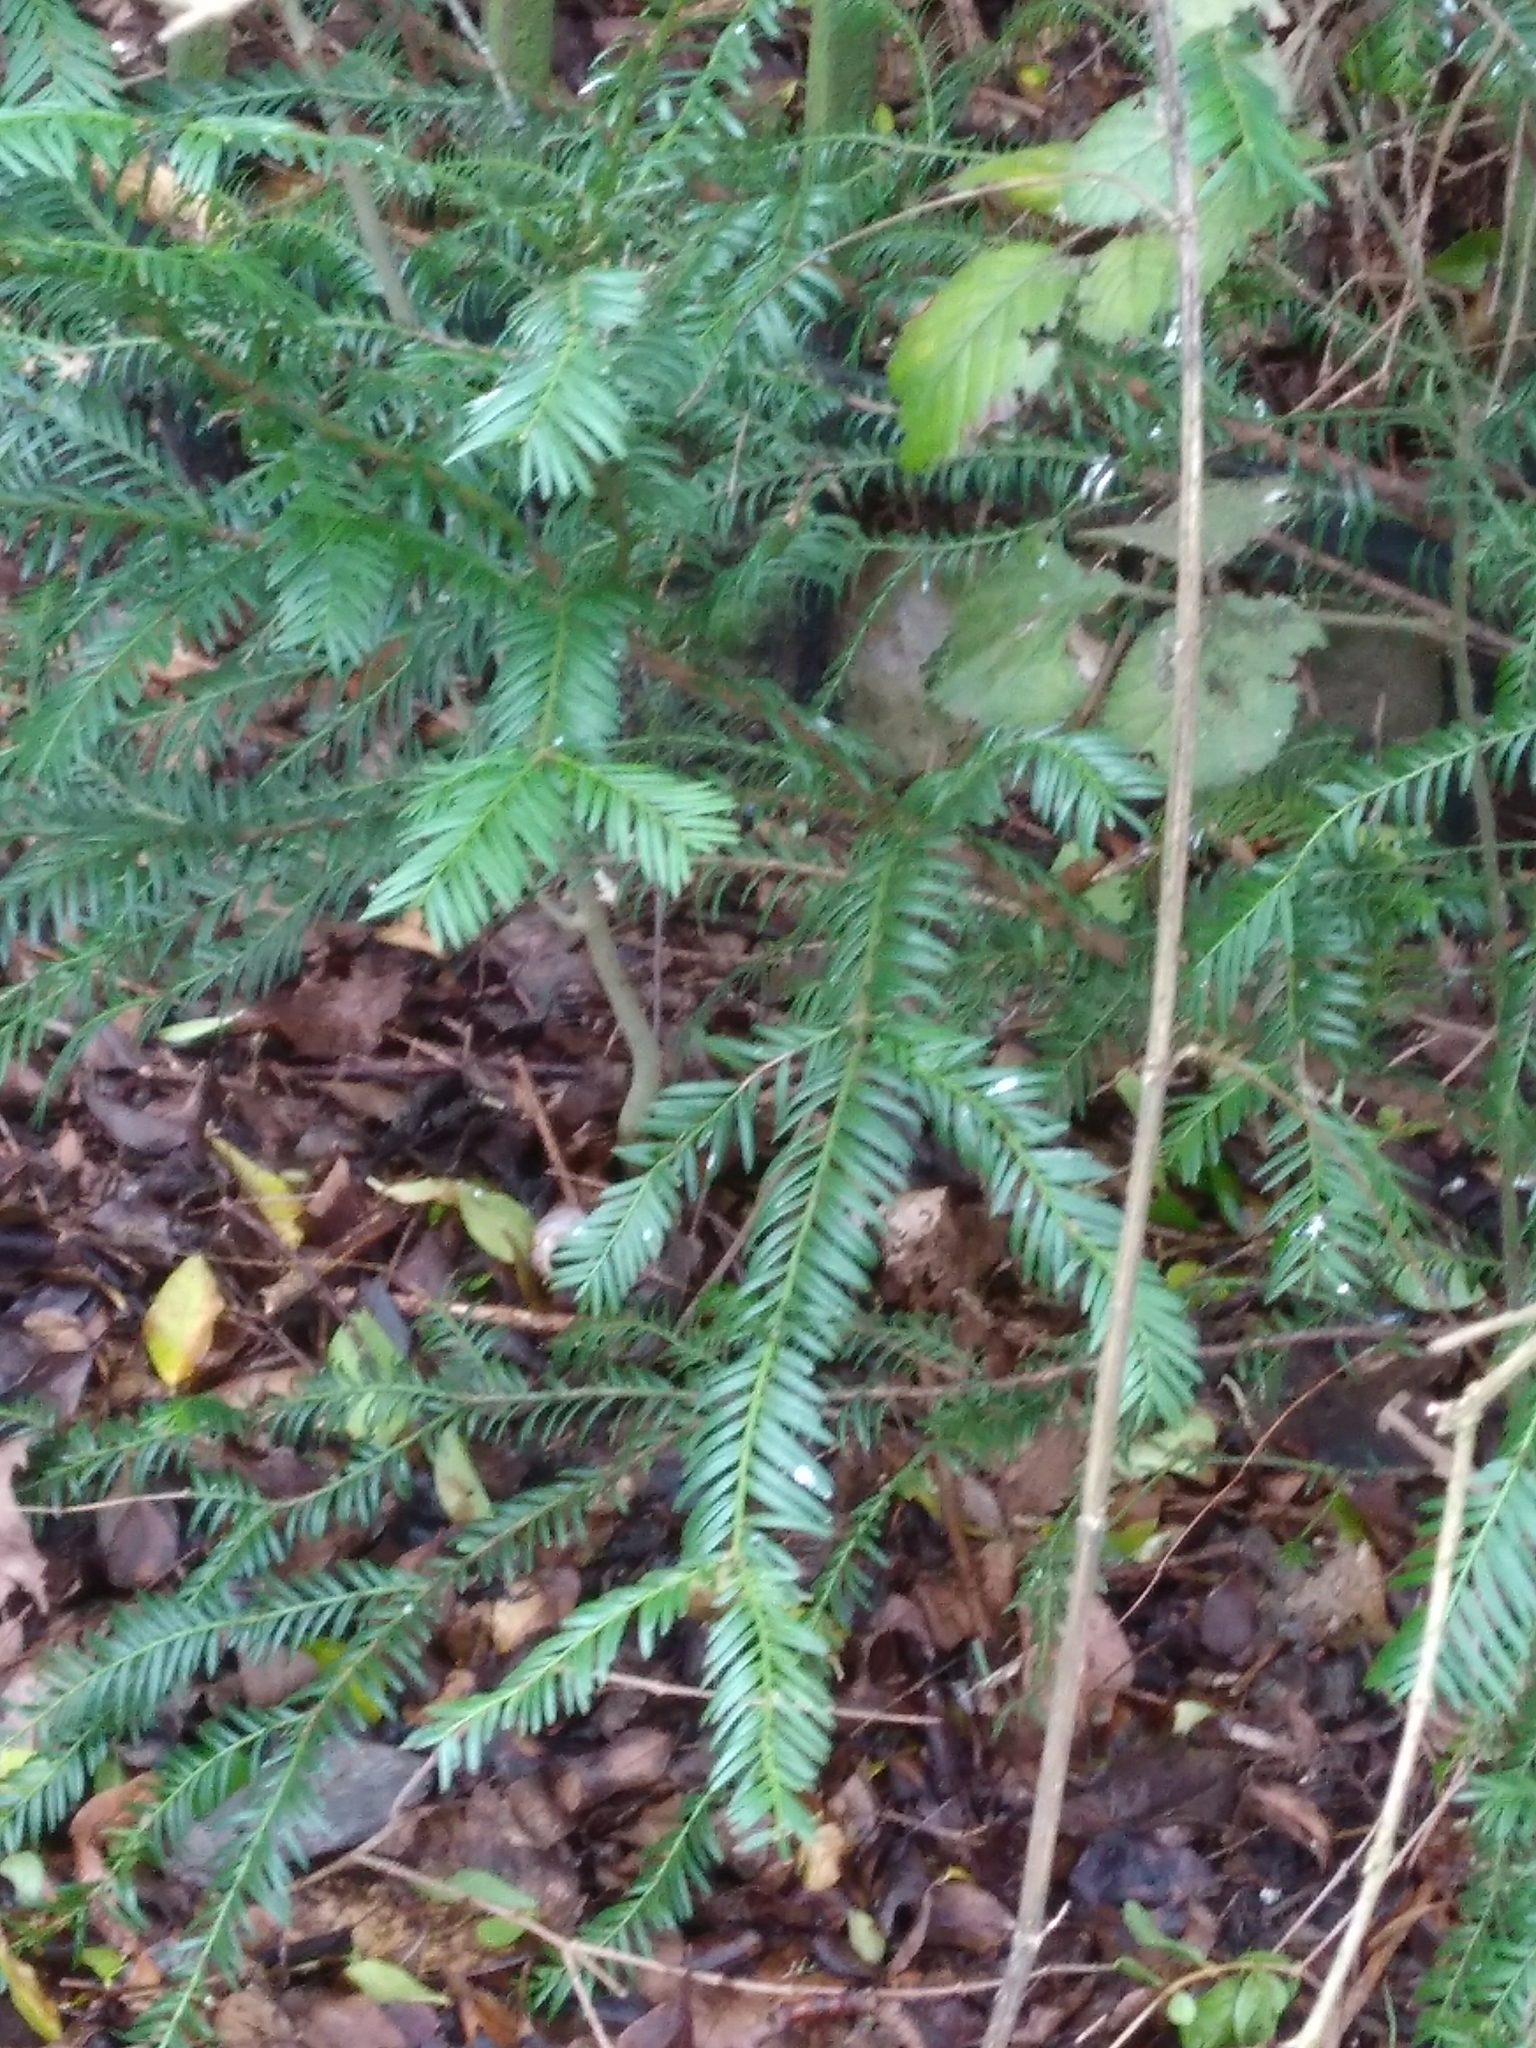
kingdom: Plantae
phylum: Tracheophyta
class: Pinopsida
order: Pinales
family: Taxaceae
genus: Taxus
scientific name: Taxus baccata
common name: Yew
